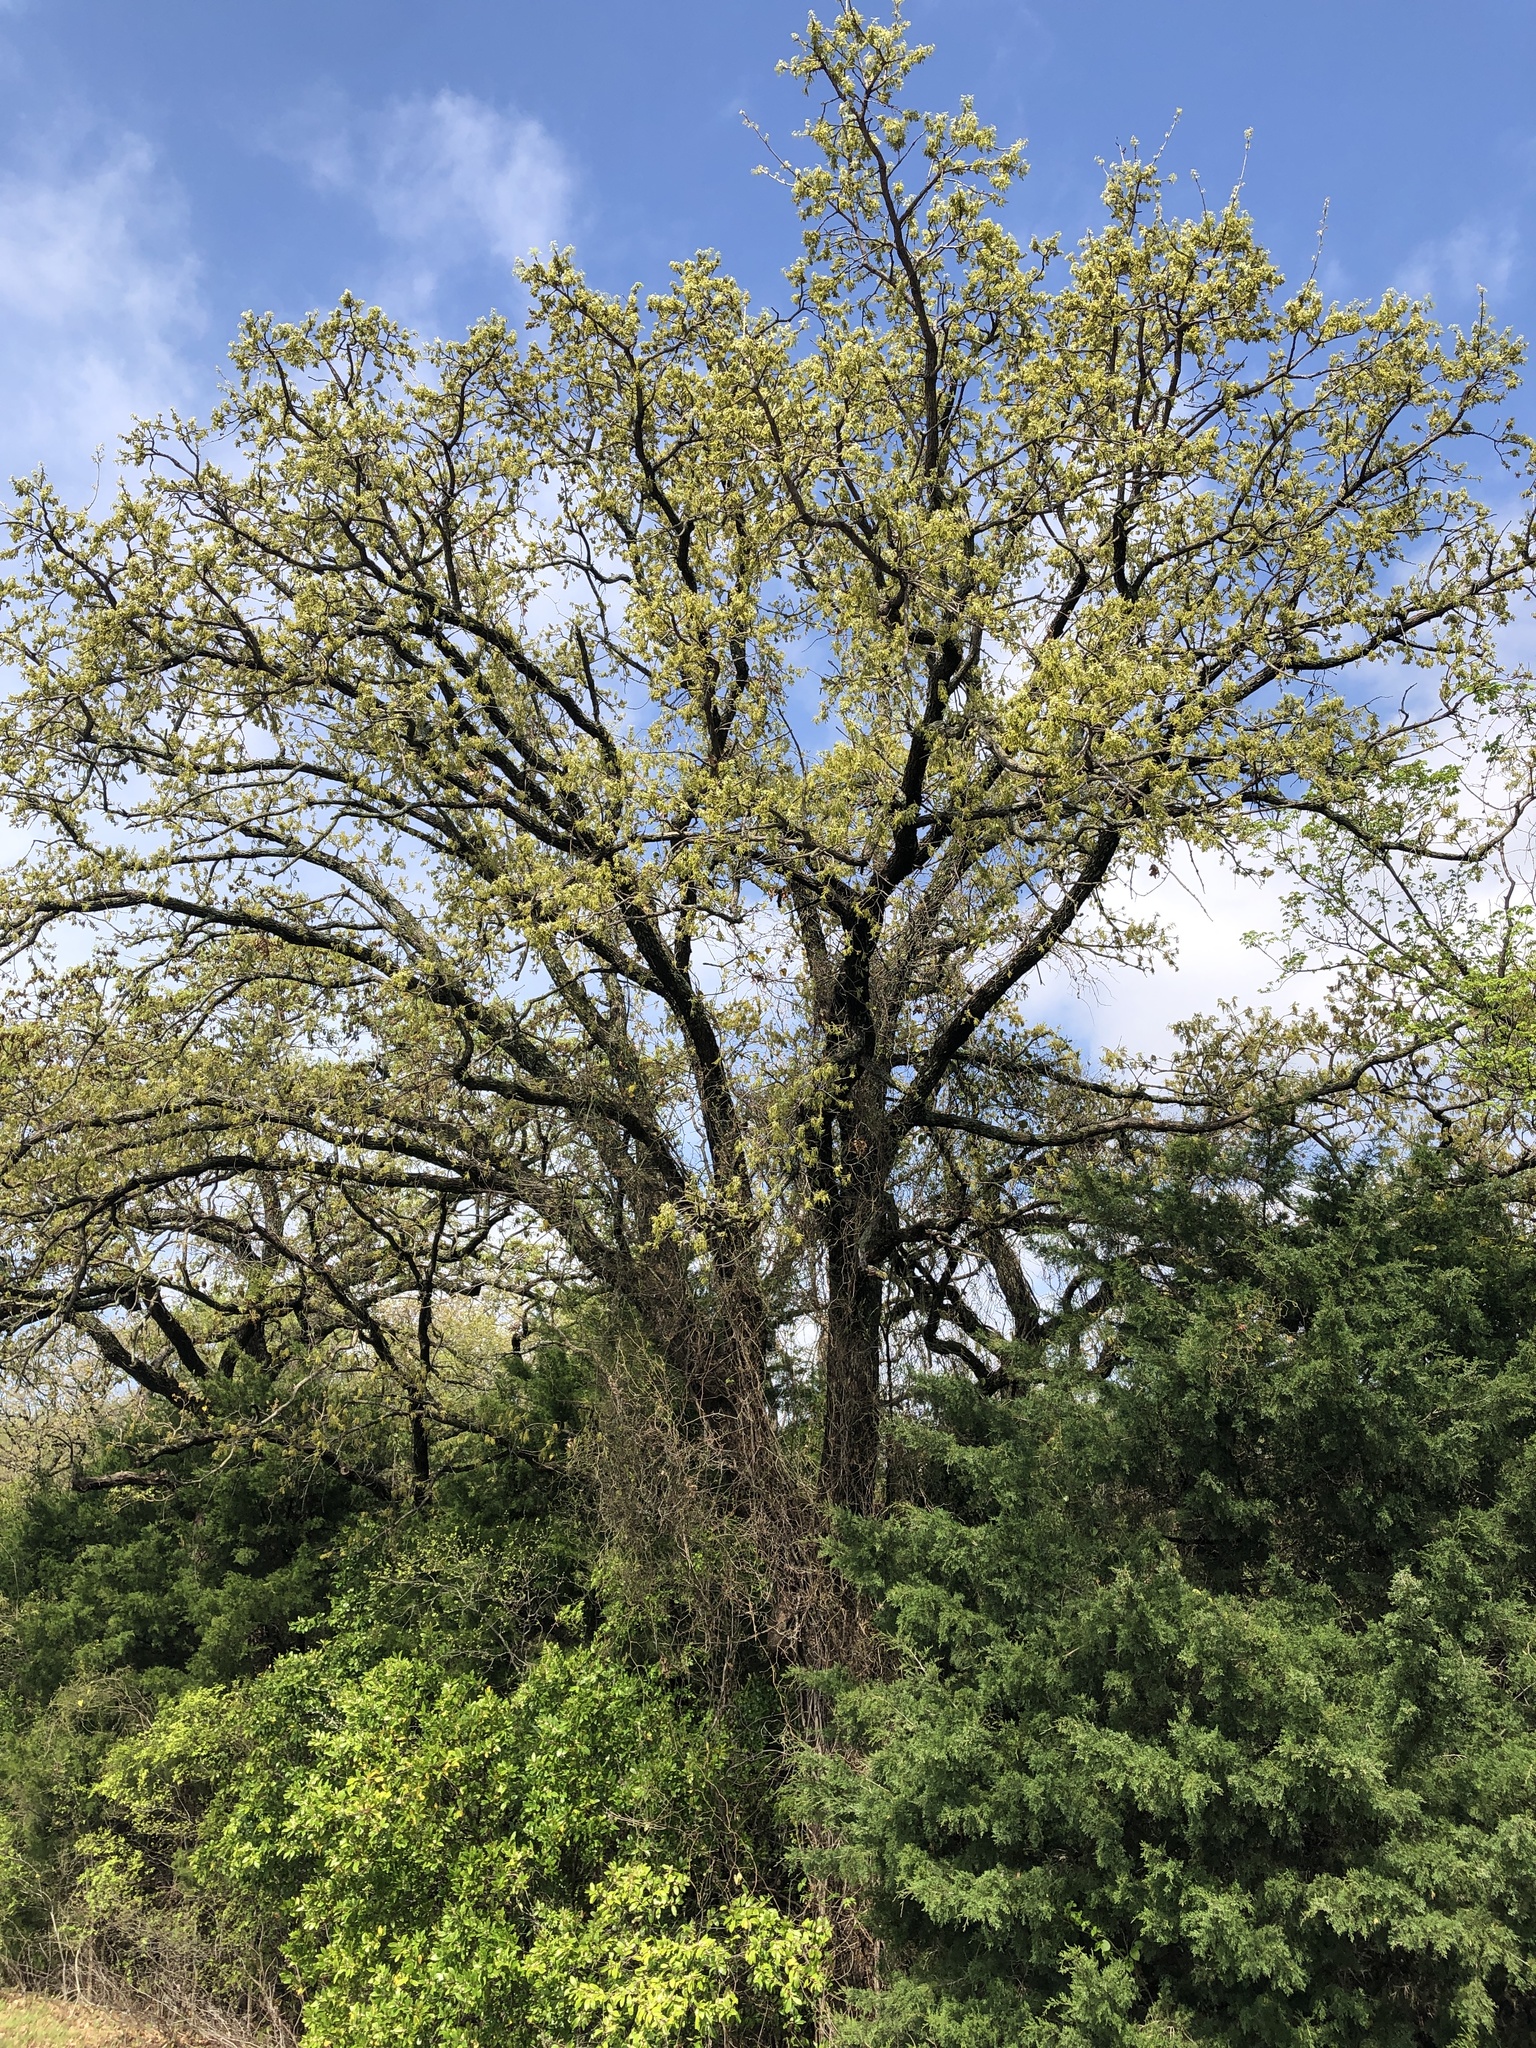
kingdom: Plantae
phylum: Tracheophyta
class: Magnoliopsida
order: Fagales
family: Fagaceae
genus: Quercus
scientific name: Quercus stellata
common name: Post oak
